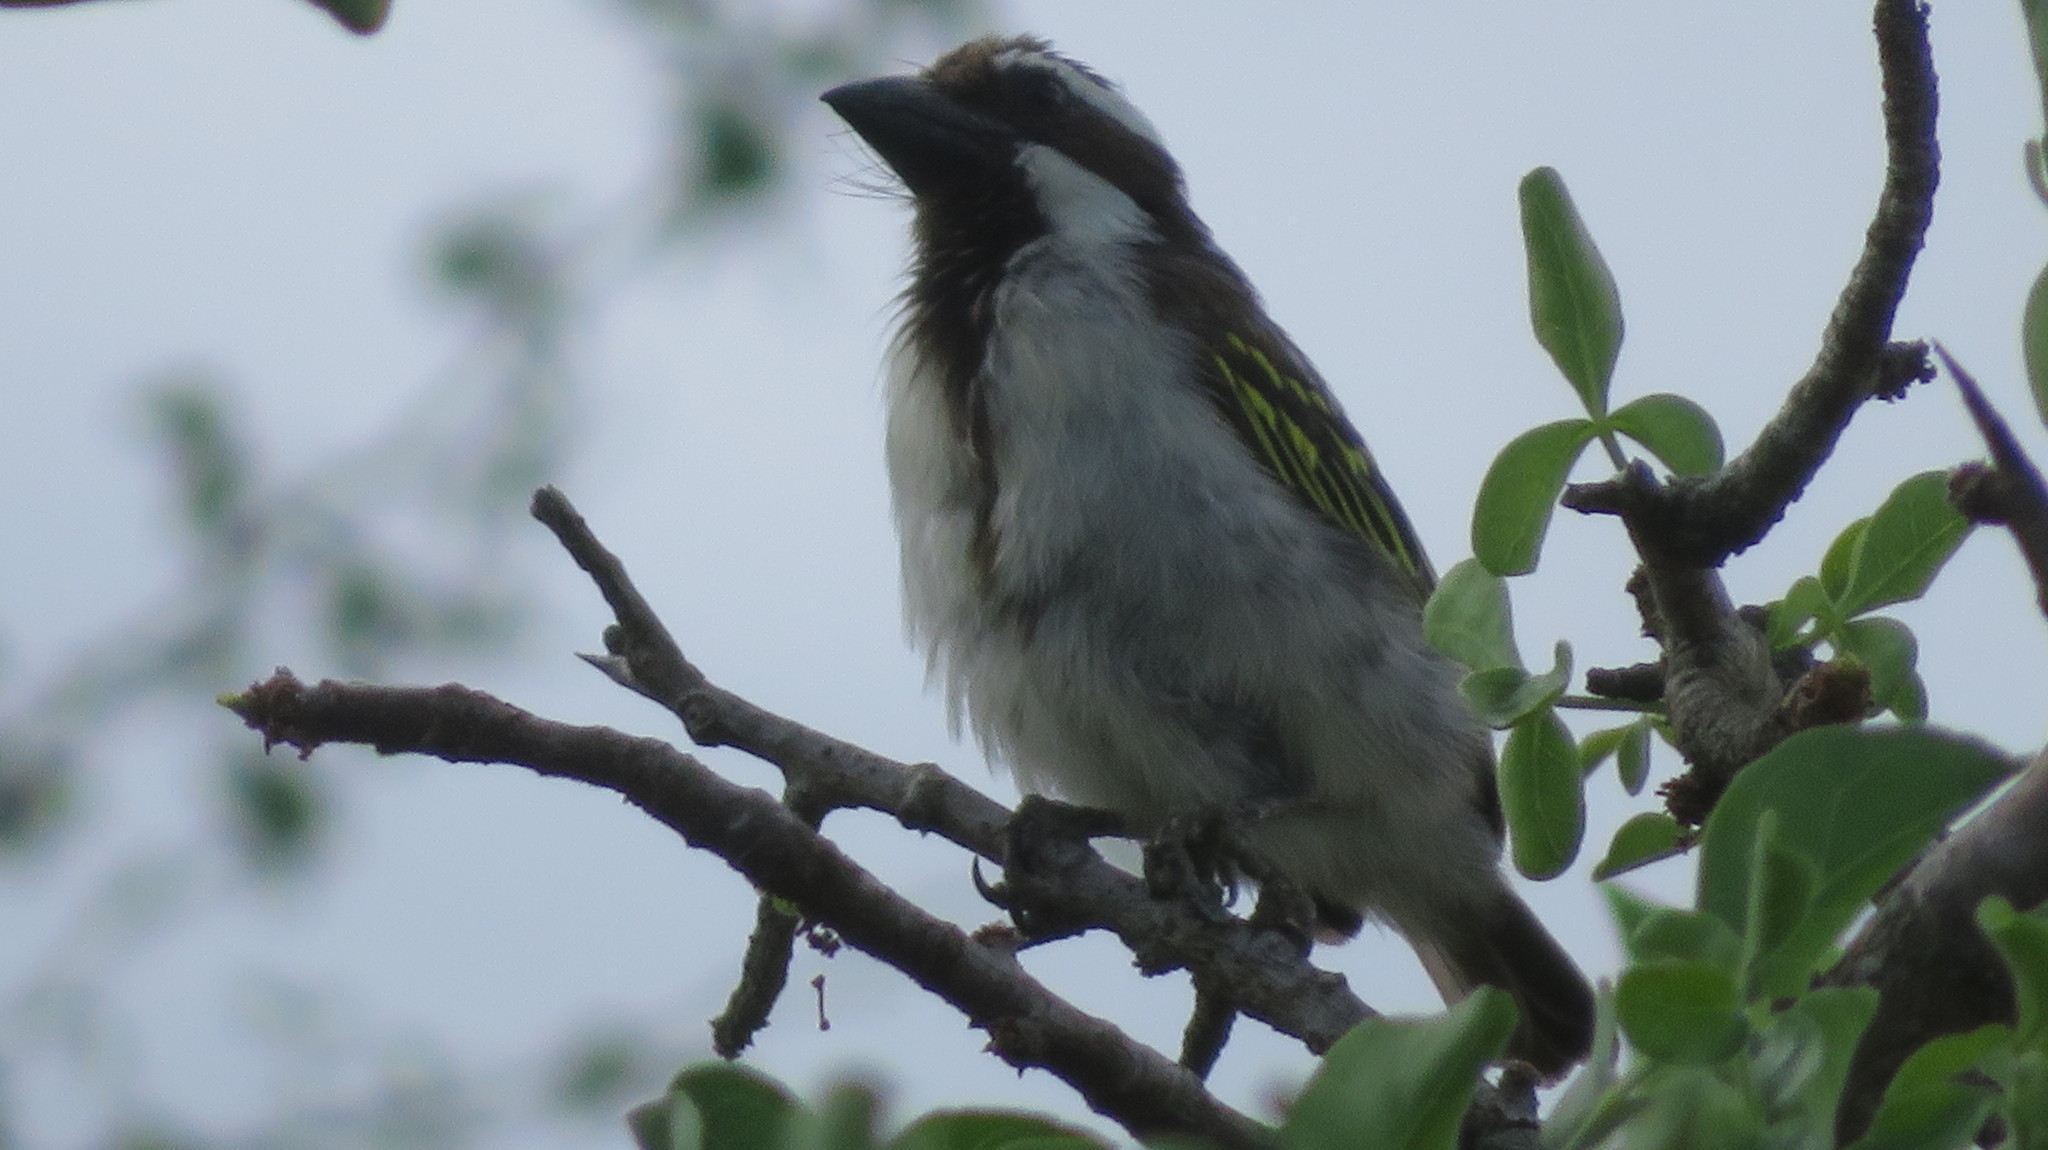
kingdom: Animalia
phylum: Chordata
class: Aves
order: Piciformes
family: Lybiidae
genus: Tricholaema
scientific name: Tricholaema melanocephala
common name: Black-throated barbet
